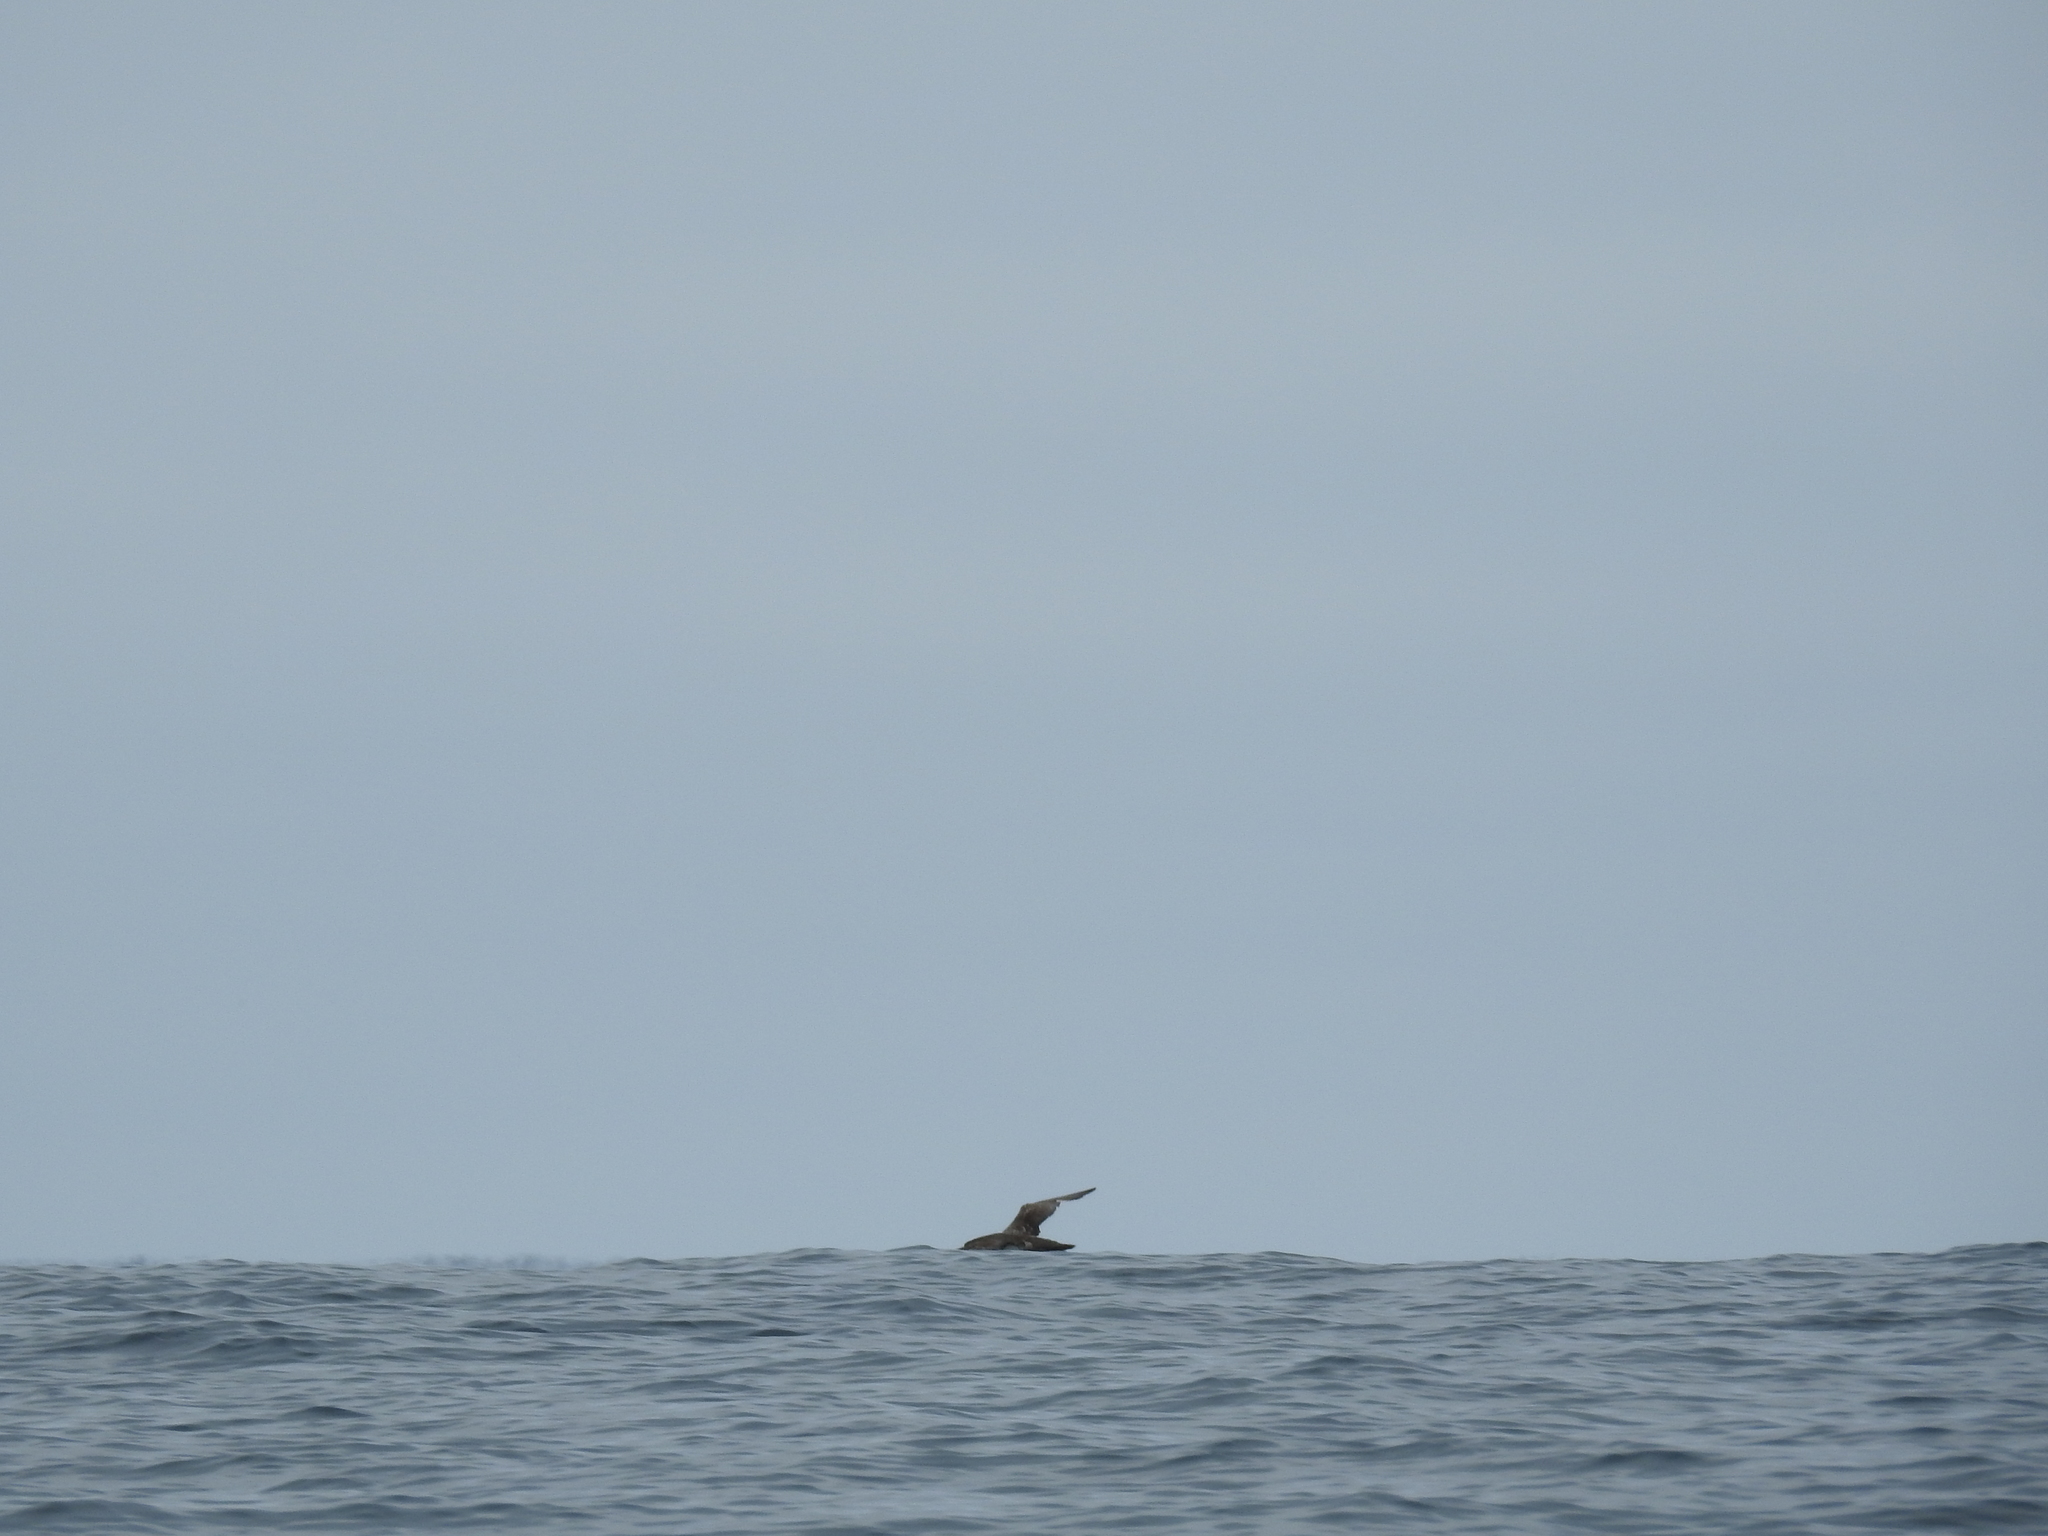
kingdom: Animalia
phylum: Chordata
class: Aves
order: Procellariiformes
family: Procellariidae
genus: Puffinus
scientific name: Puffinus creatopus
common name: Pink-footed shearwater
